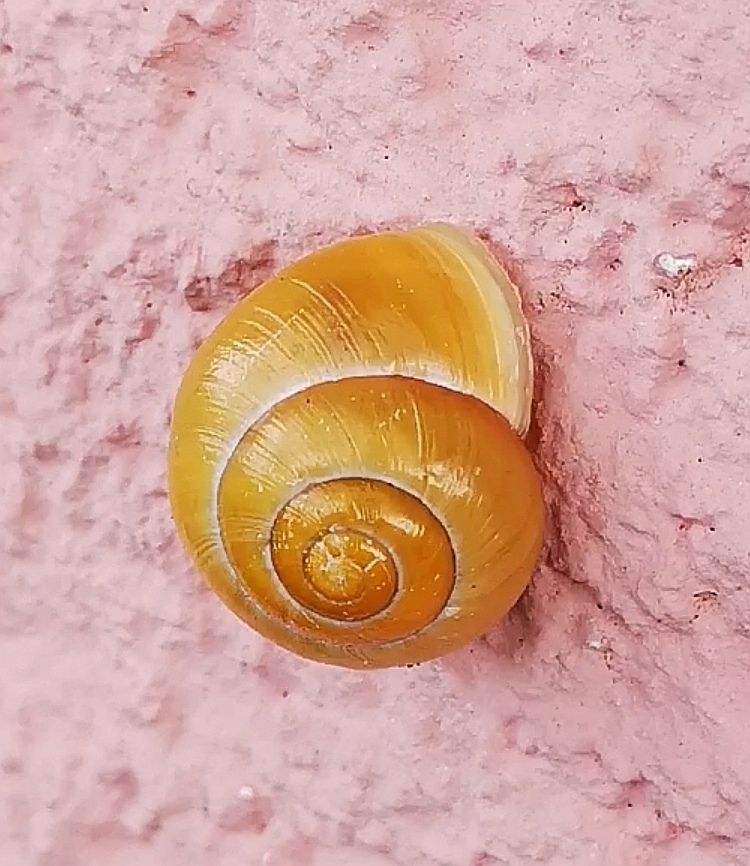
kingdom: Animalia
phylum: Mollusca
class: Gastropoda
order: Stylommatophora
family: Helicidae
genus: Cepaea
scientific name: Cepaea hortensis
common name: White-lip gardensnail
